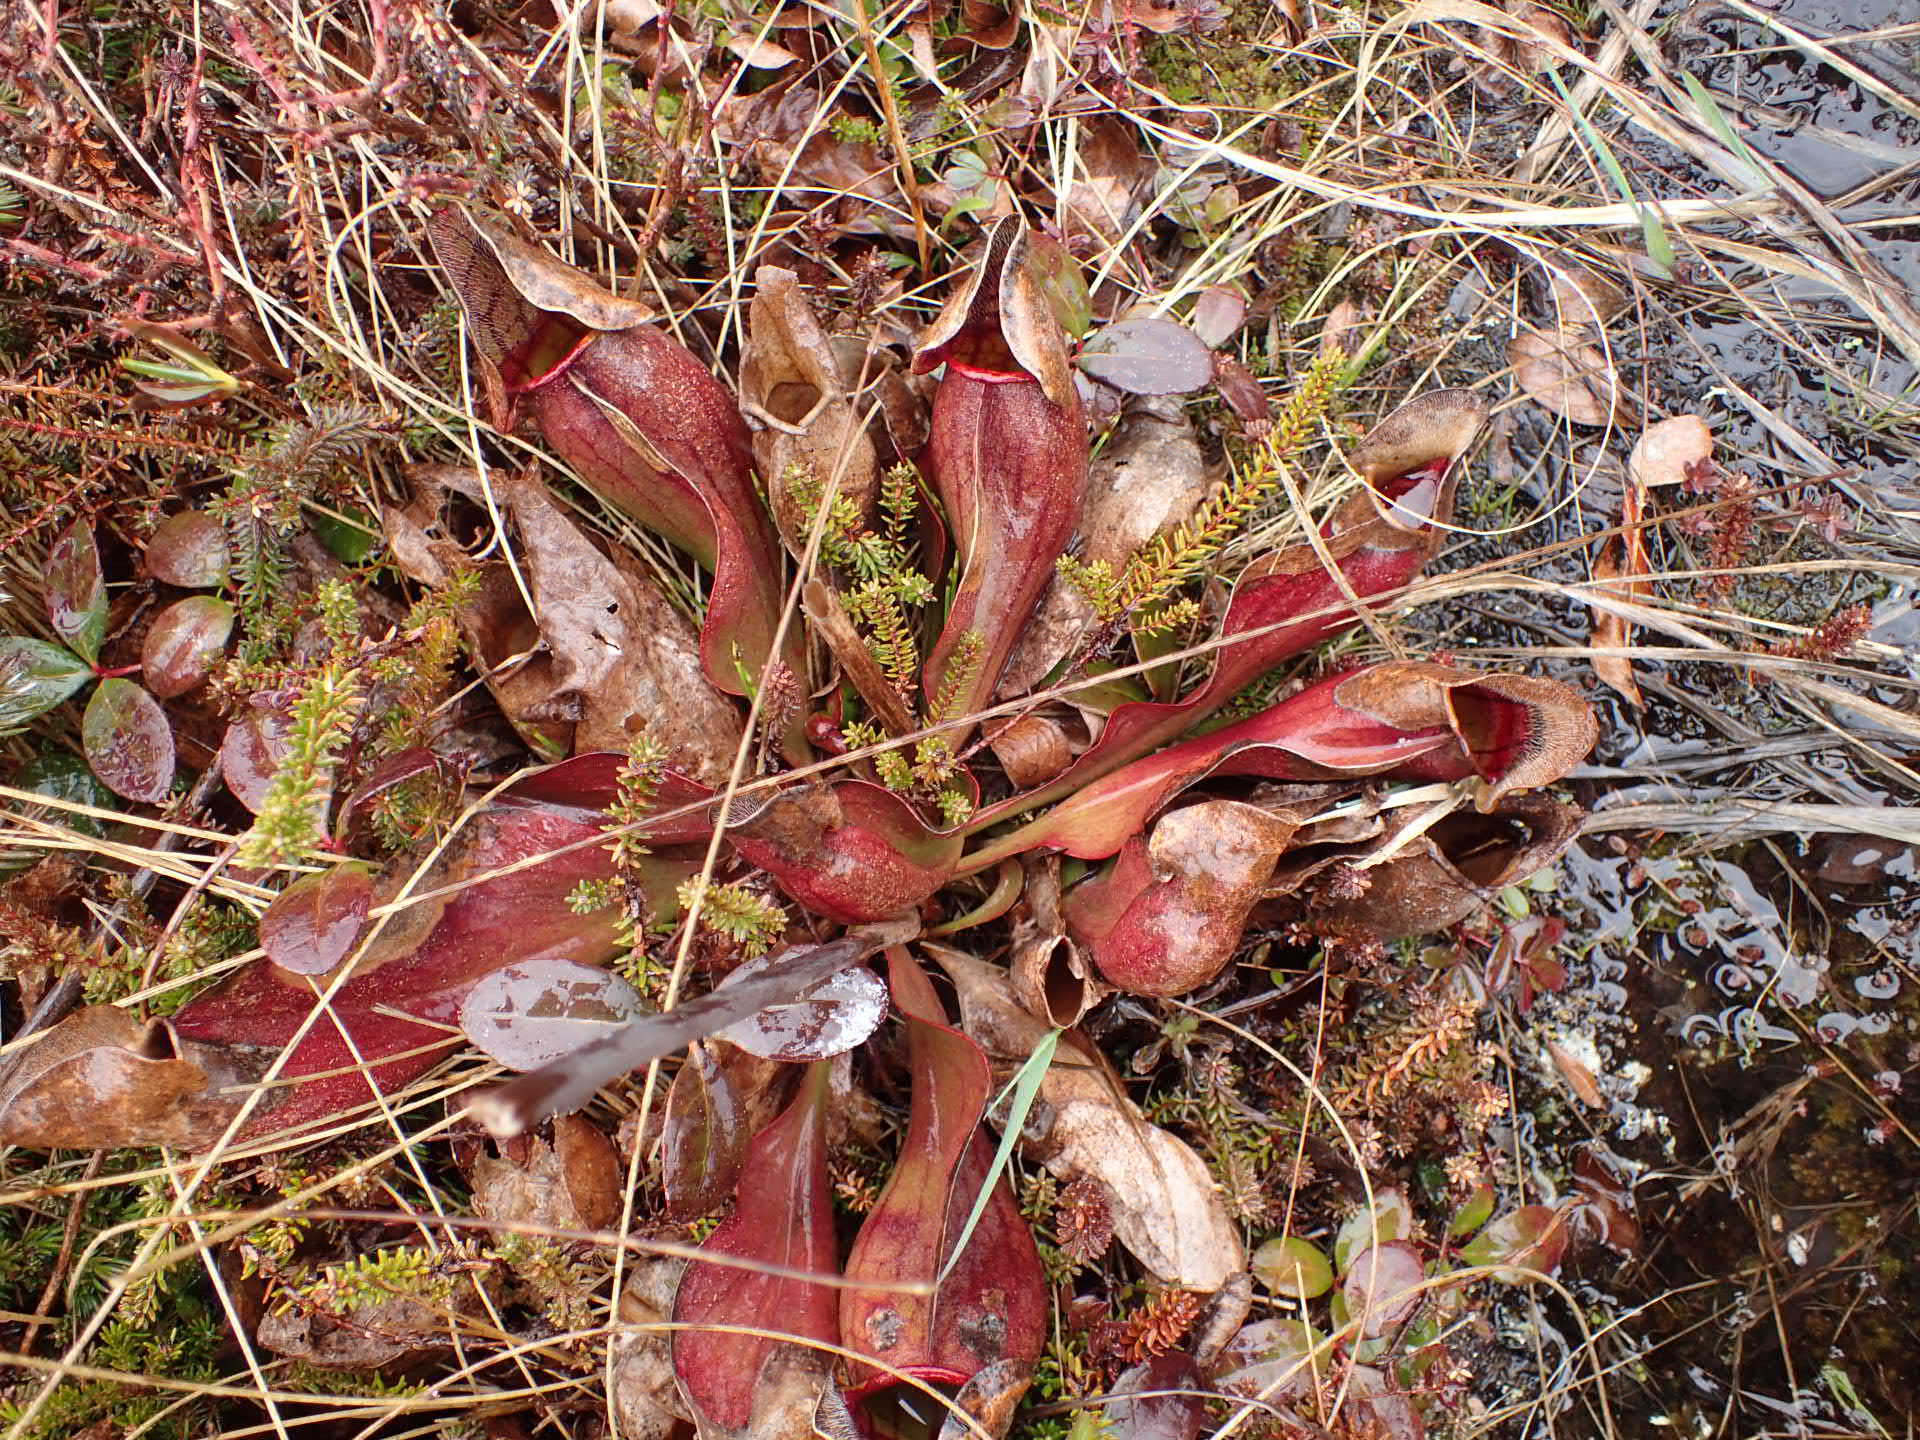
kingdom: Plantae
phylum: Tracheophyta
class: Magnoliopsida
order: Ericales
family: Sarraceniaceae
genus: Sarracenia
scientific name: Sarracenia purpurea
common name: Pitcherplant
